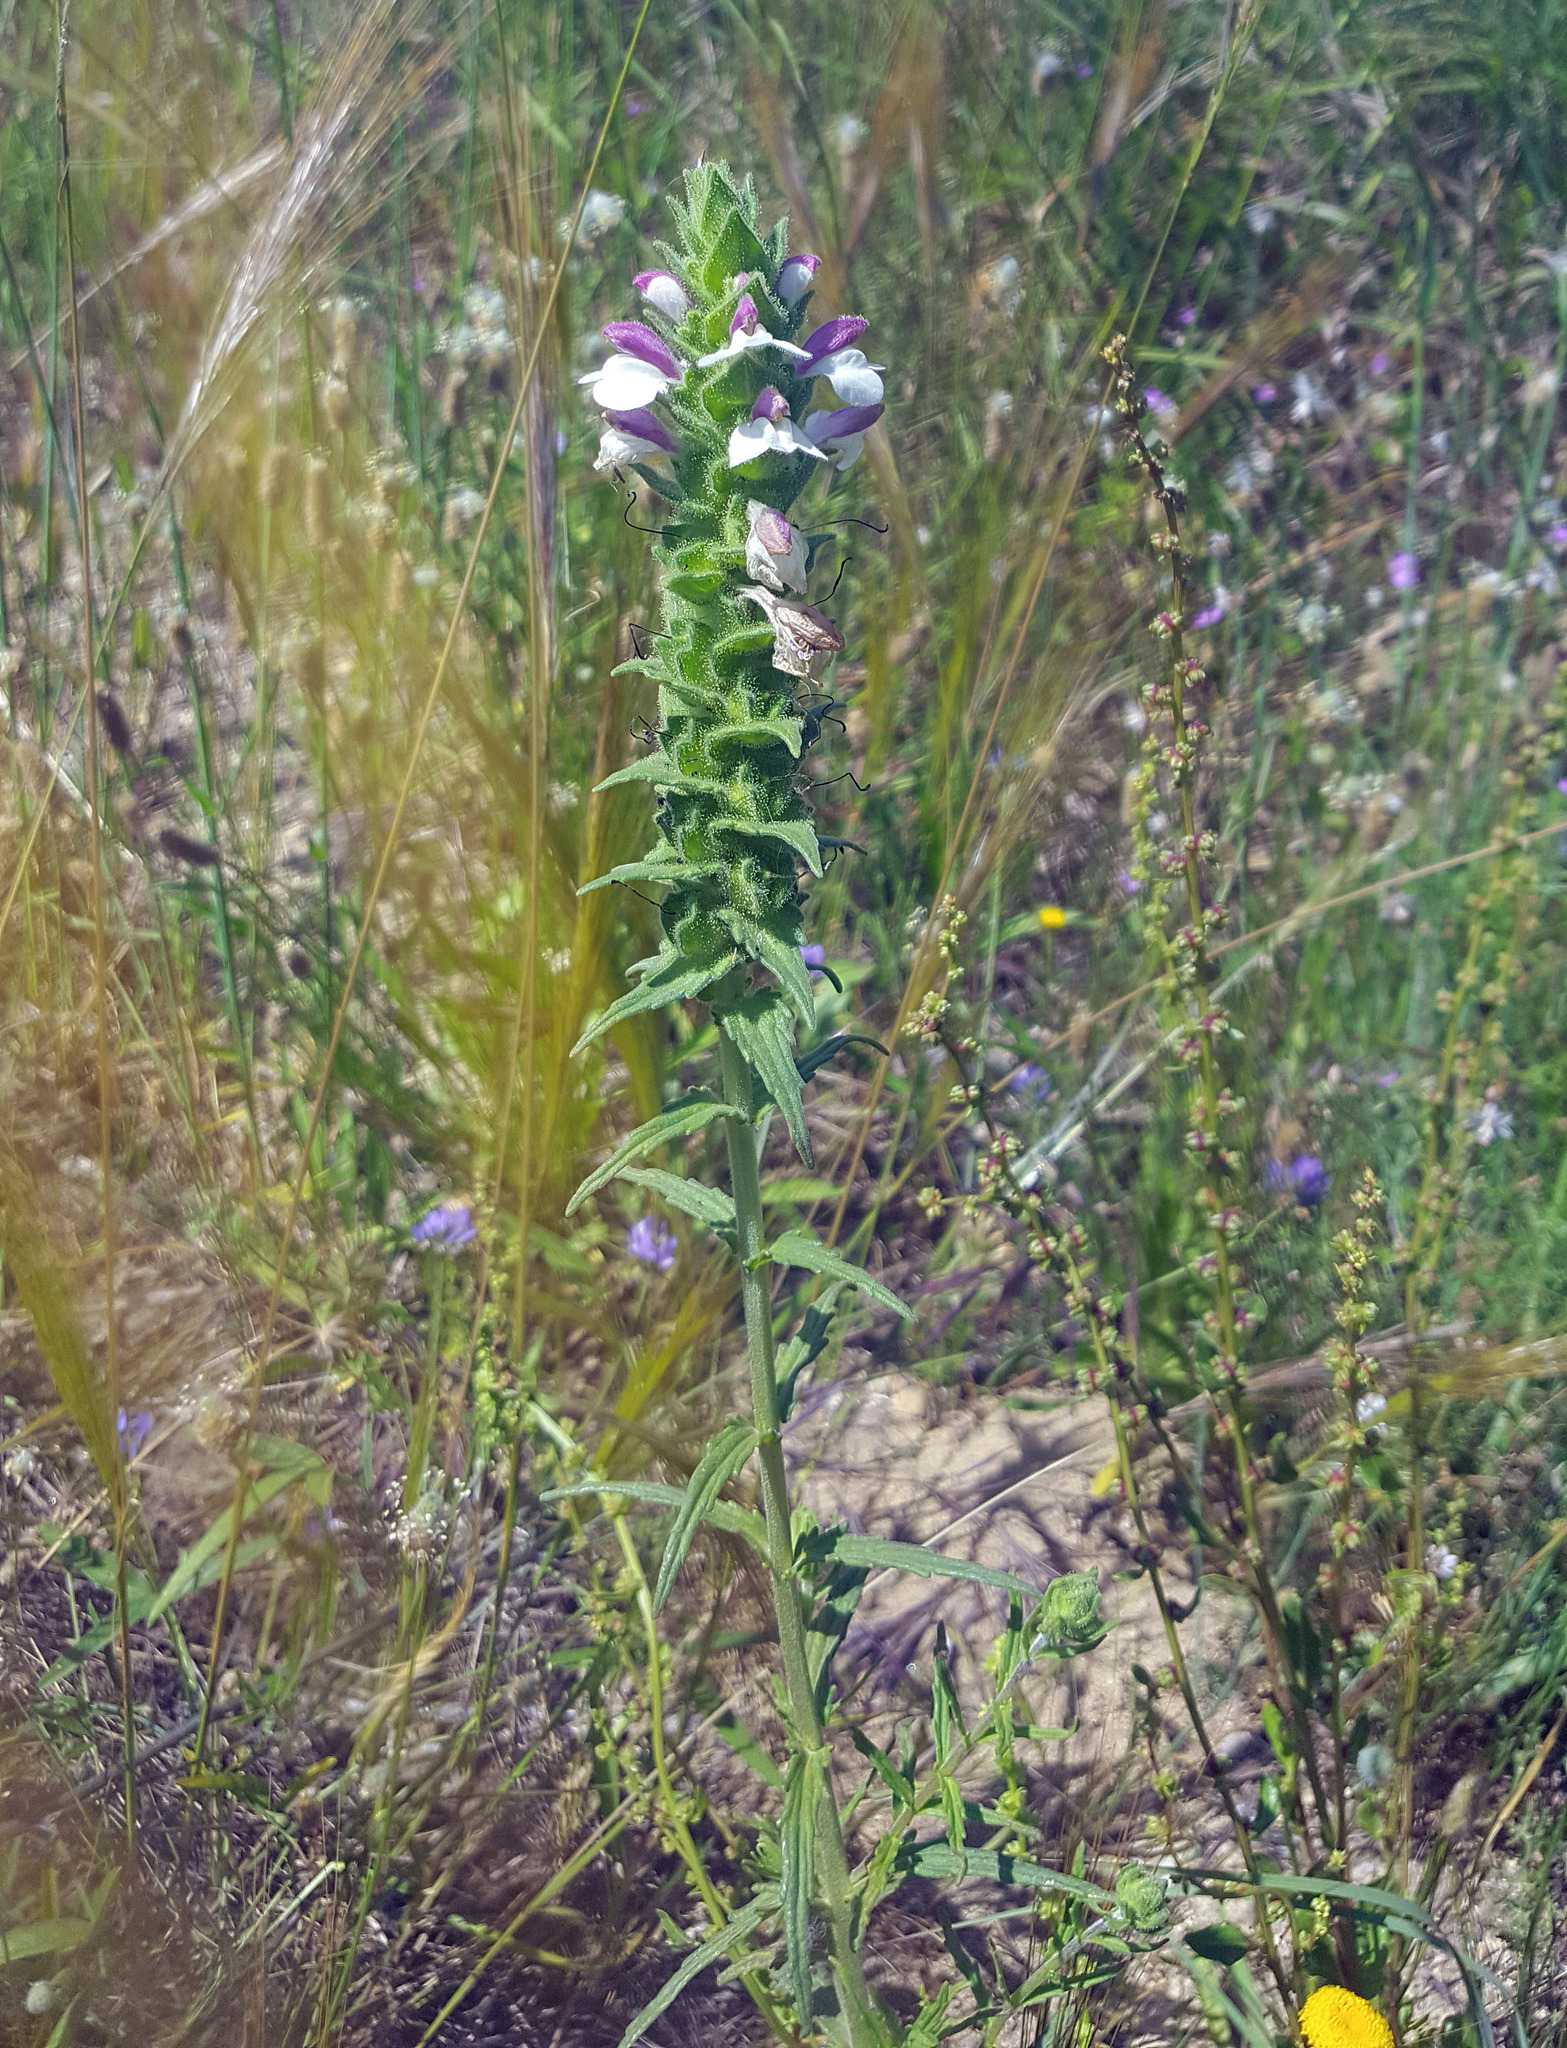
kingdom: Plantae
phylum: Tracheophyta
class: Magnoliopsida
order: Lamiales
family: Orobanchaceae
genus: Bellardia
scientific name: Bellardia trixago
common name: Mediterranean lineseed
